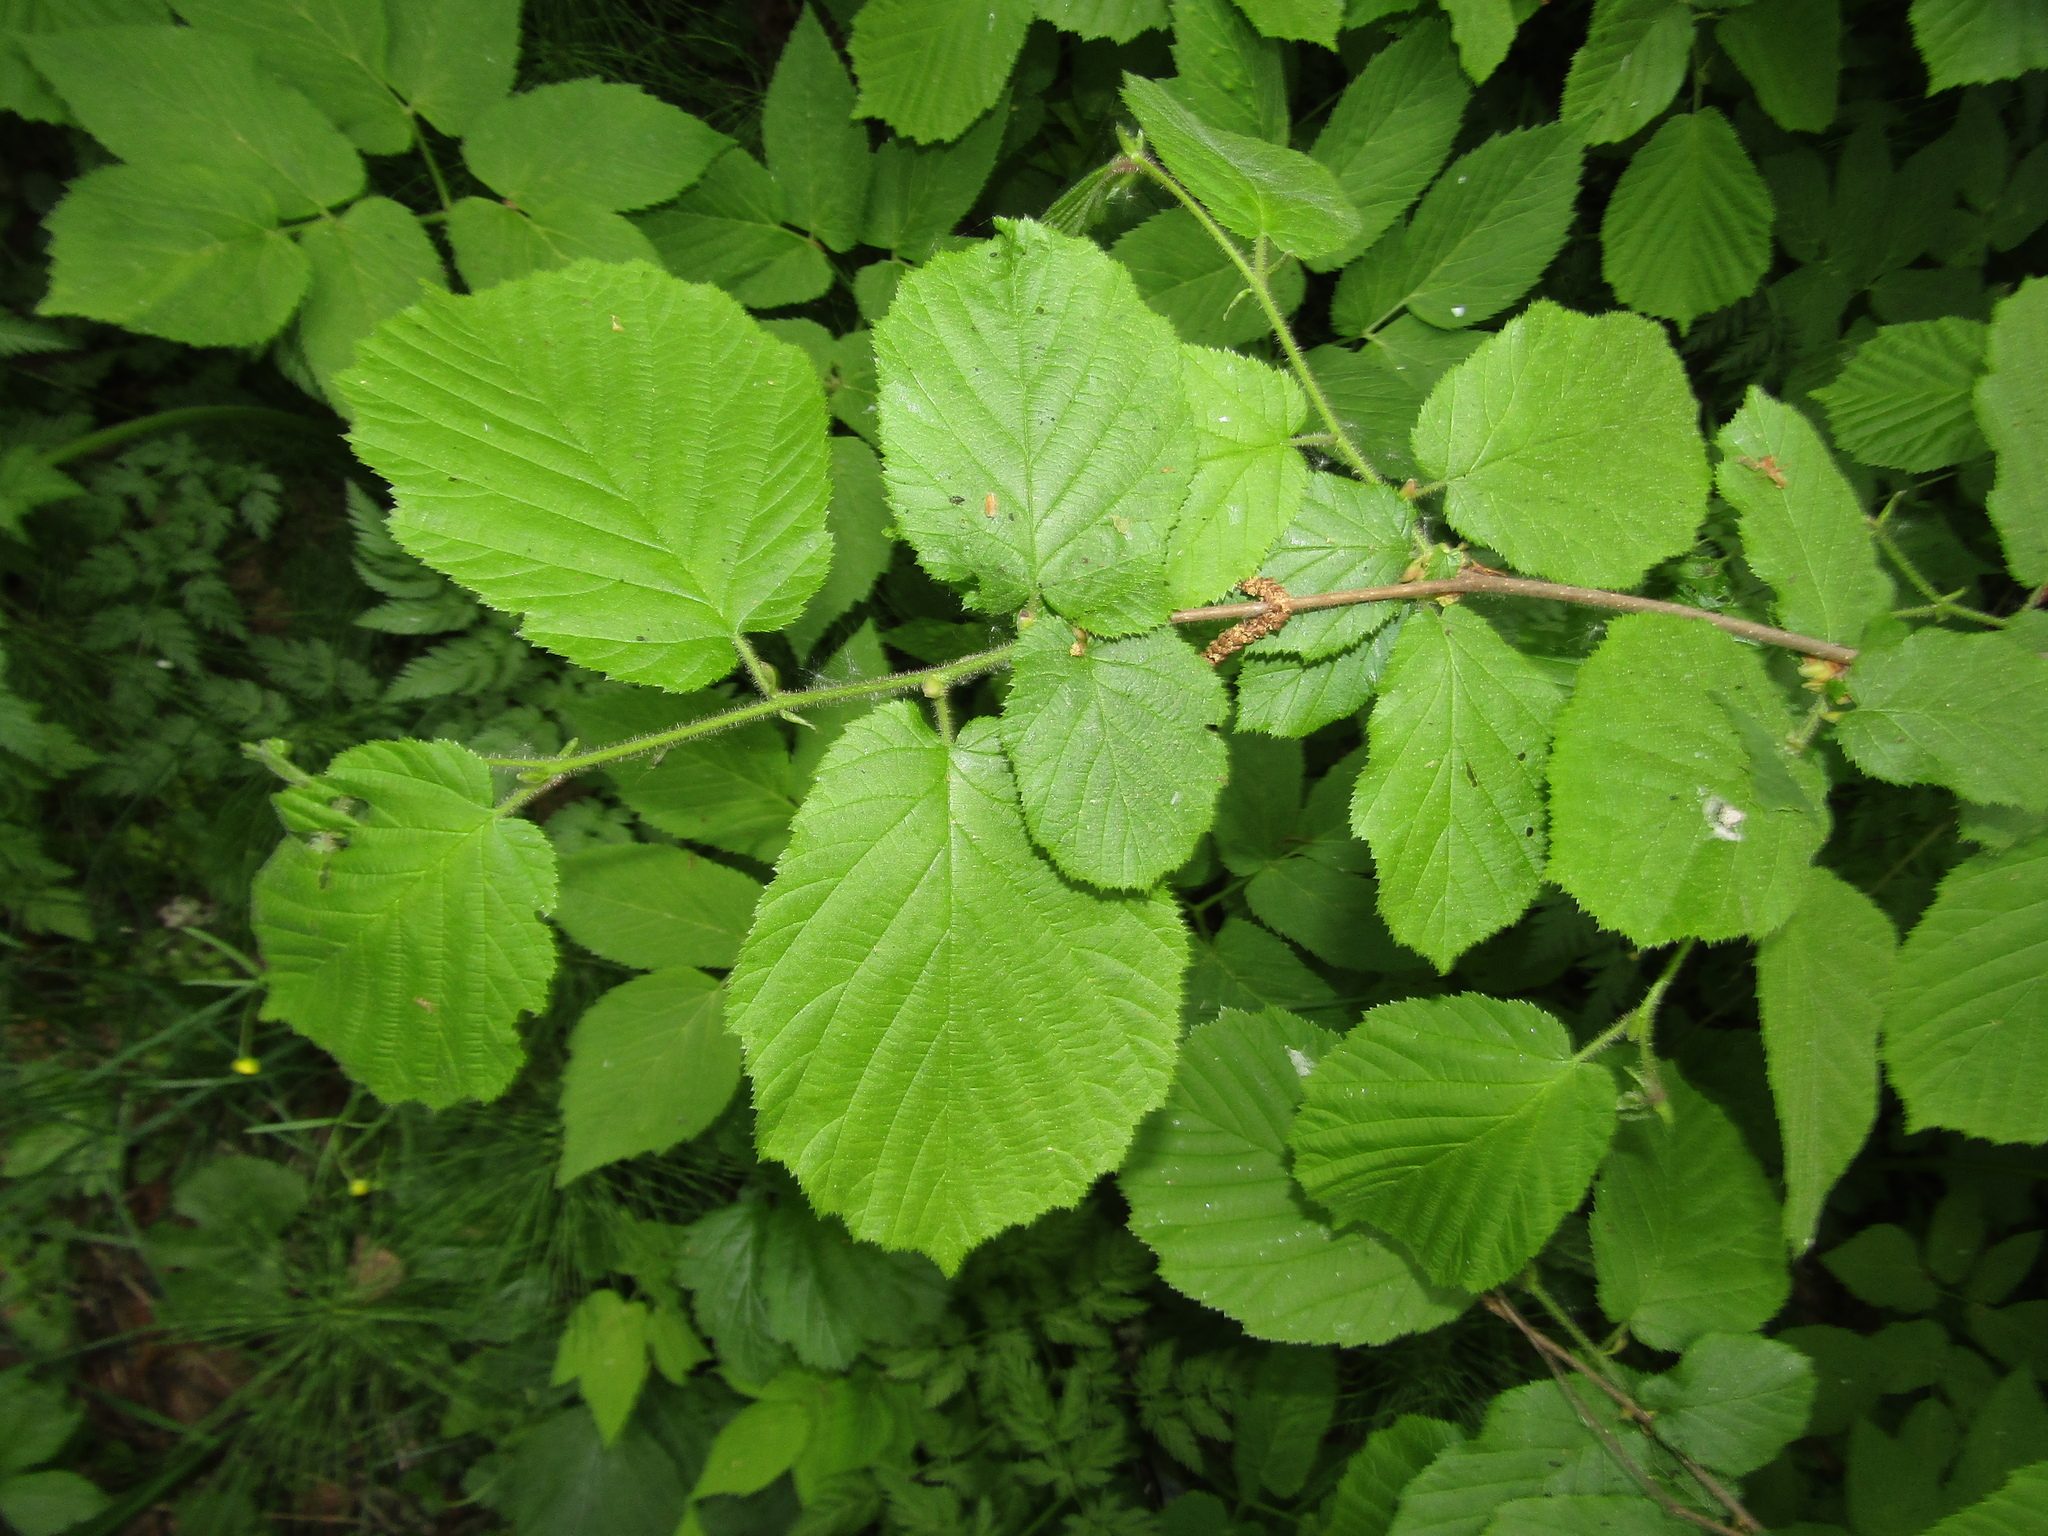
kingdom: Plantae
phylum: Tracheophyta
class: Magnoliopsida
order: Fagales
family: Betulaceae
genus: Corylus
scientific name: Corylus avellana
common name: European hazel
